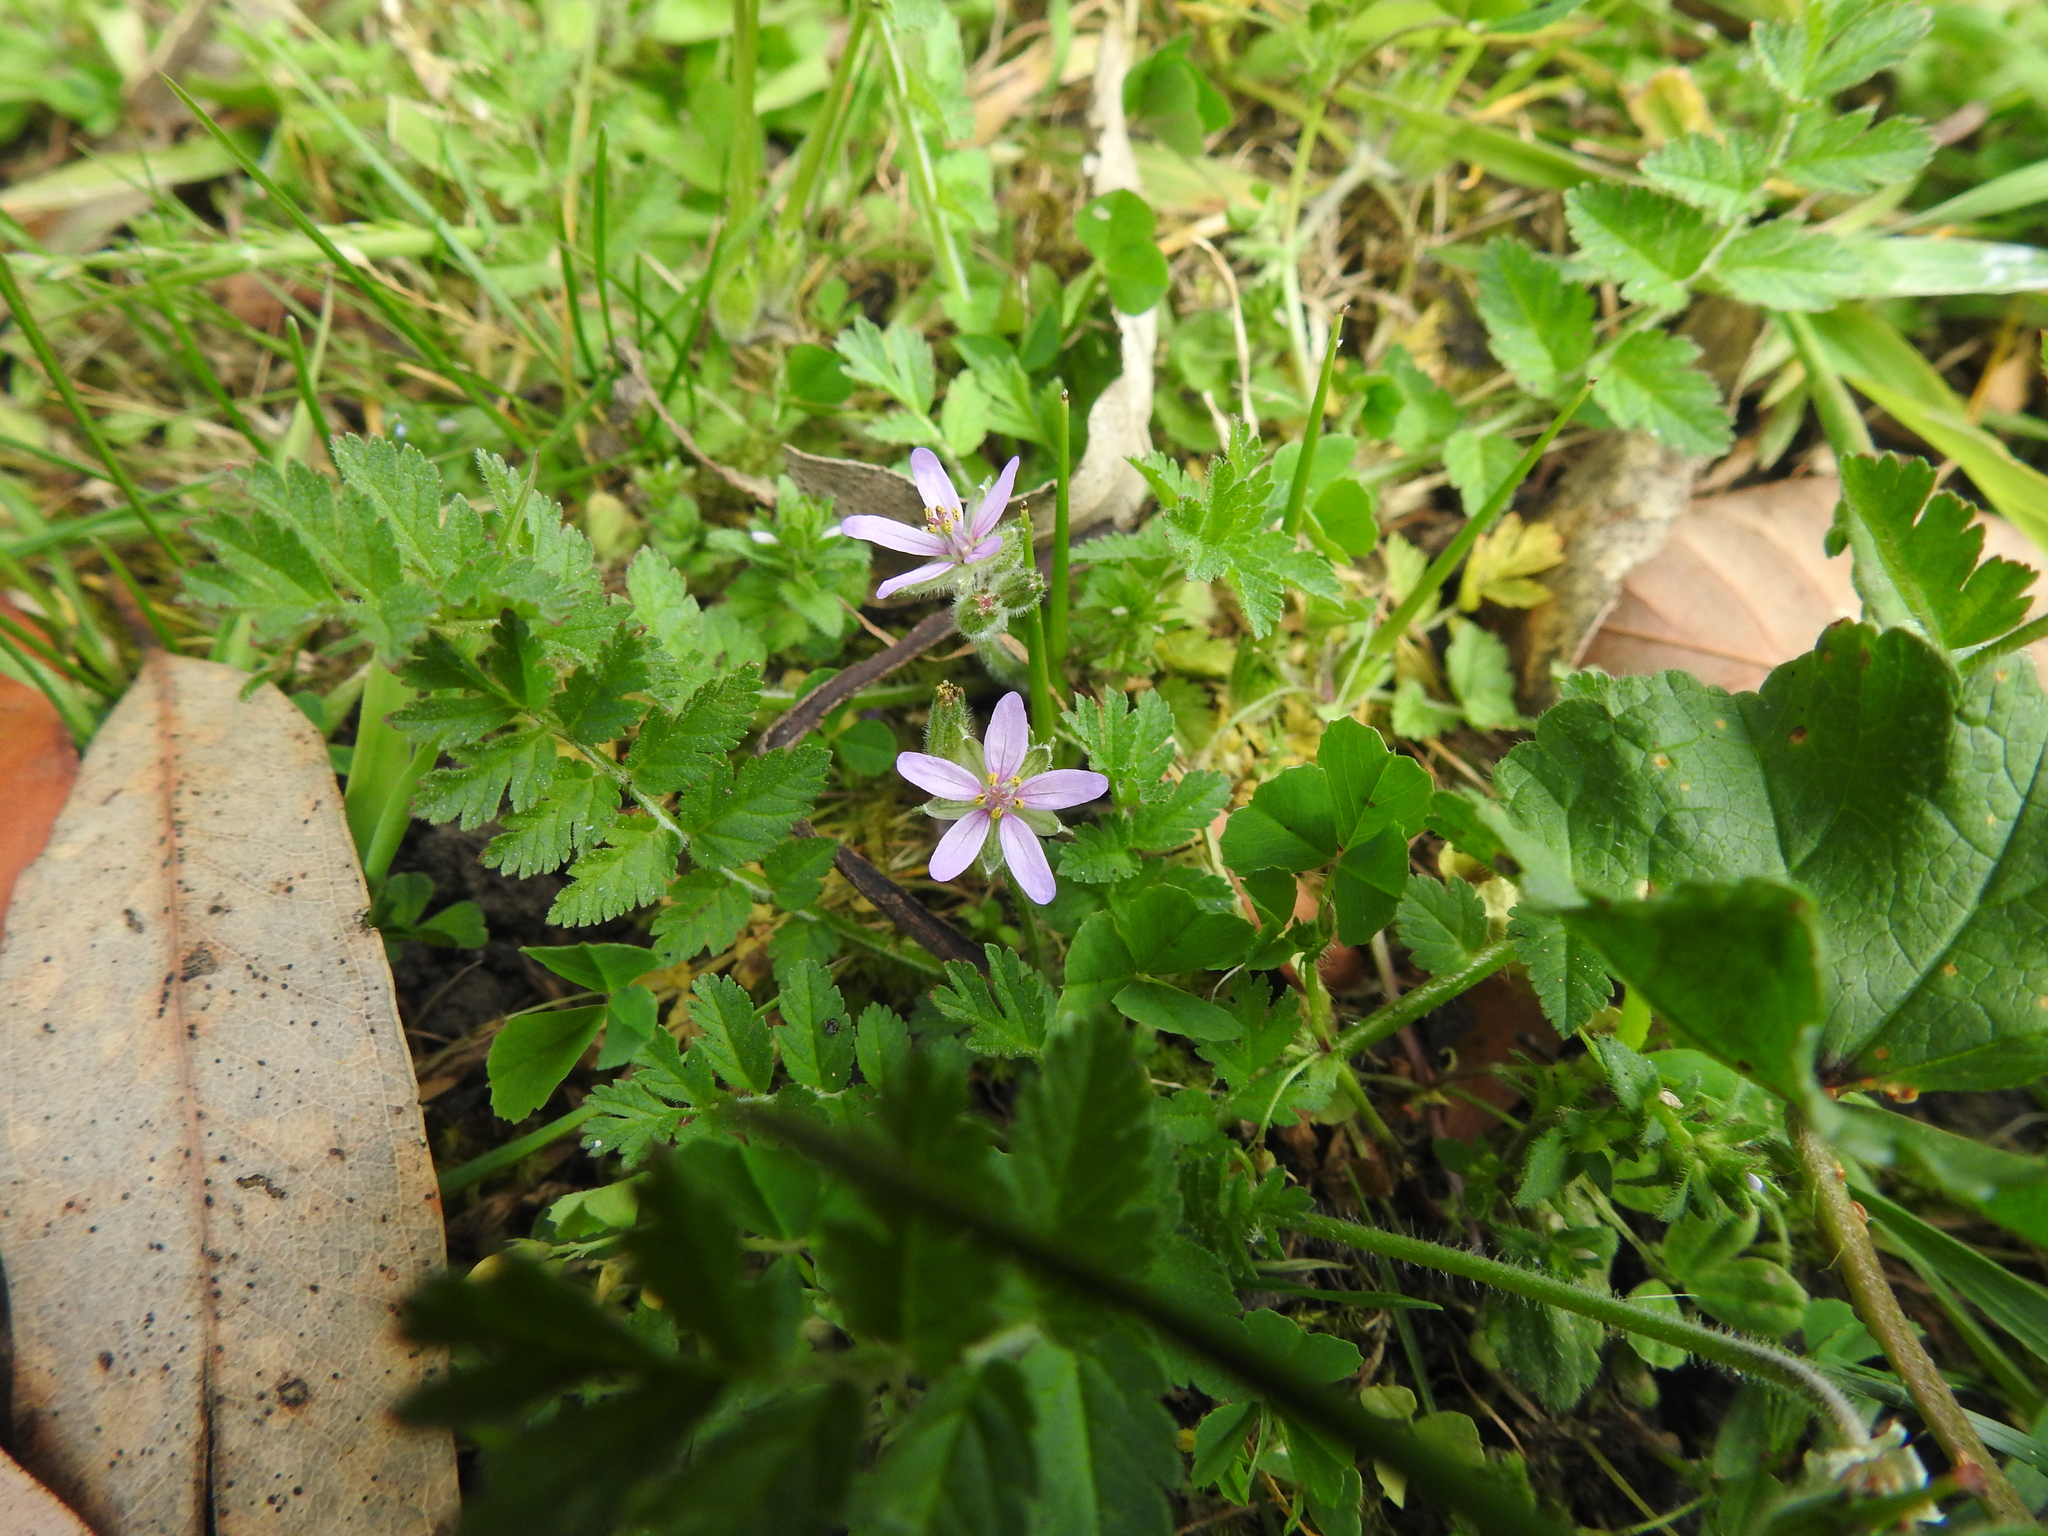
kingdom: Plantae
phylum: Tracheophyta
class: Magnoliopsida
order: Geraniales
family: Geraniaceae
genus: Erodium
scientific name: Erodium moschatum
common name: Musk stork's-bill
